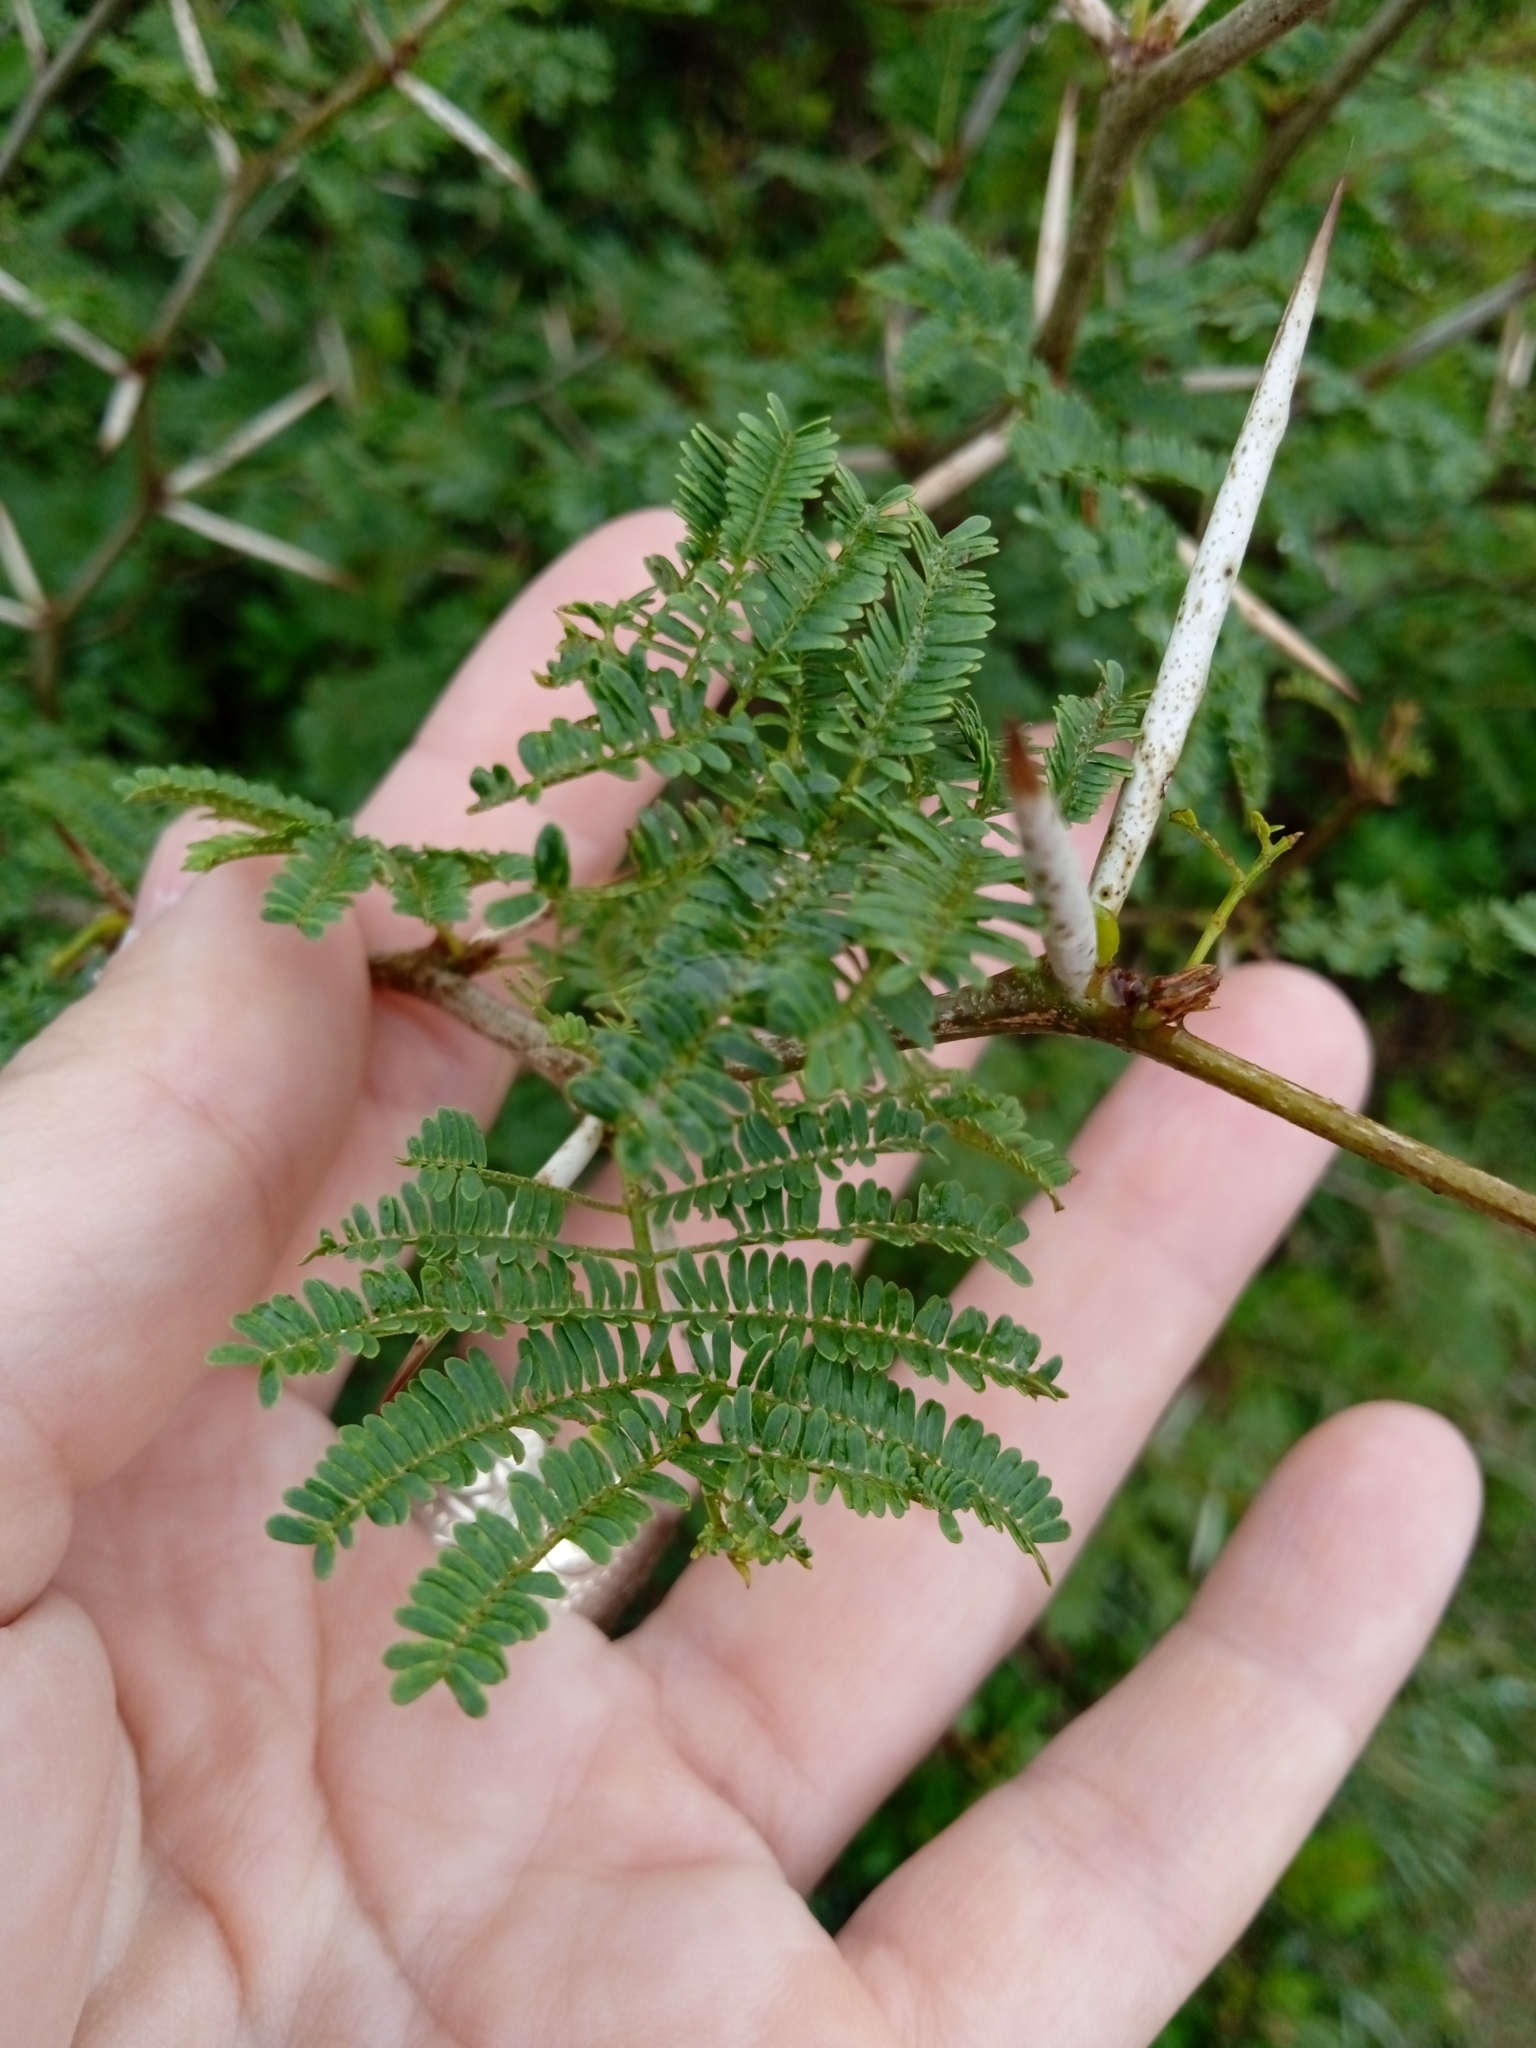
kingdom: Plantae
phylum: Tracheophyta
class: Magnoliopsida
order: Fabales
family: Fabaceae
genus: Vachellia
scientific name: Vachellia caven
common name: Roman cassie
